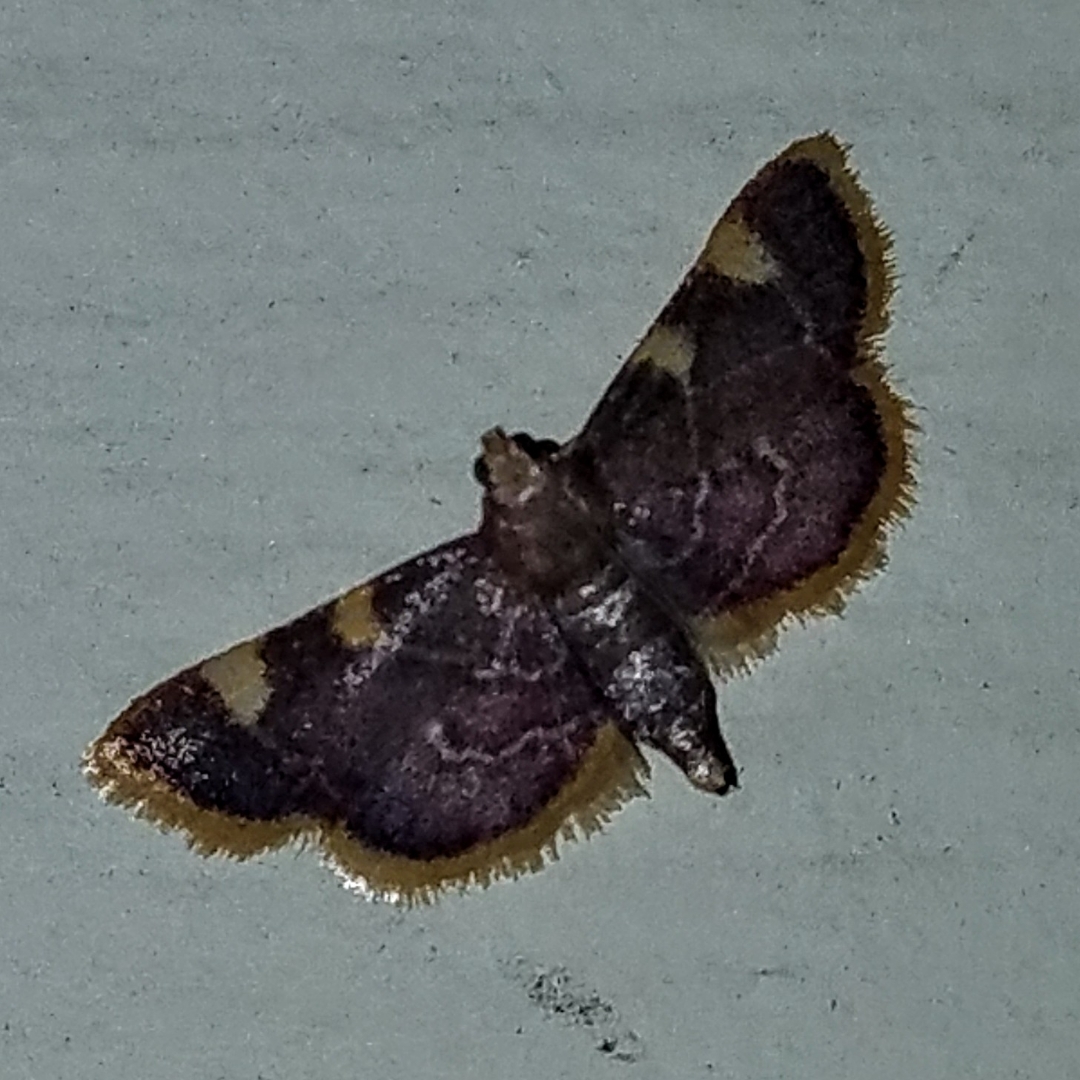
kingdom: Animalia
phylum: Arthropoda
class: Insecta
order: Lepidoptera
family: Pyralidae
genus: Hypsopygia
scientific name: Hypsopygia costalis
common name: Gold triangle
